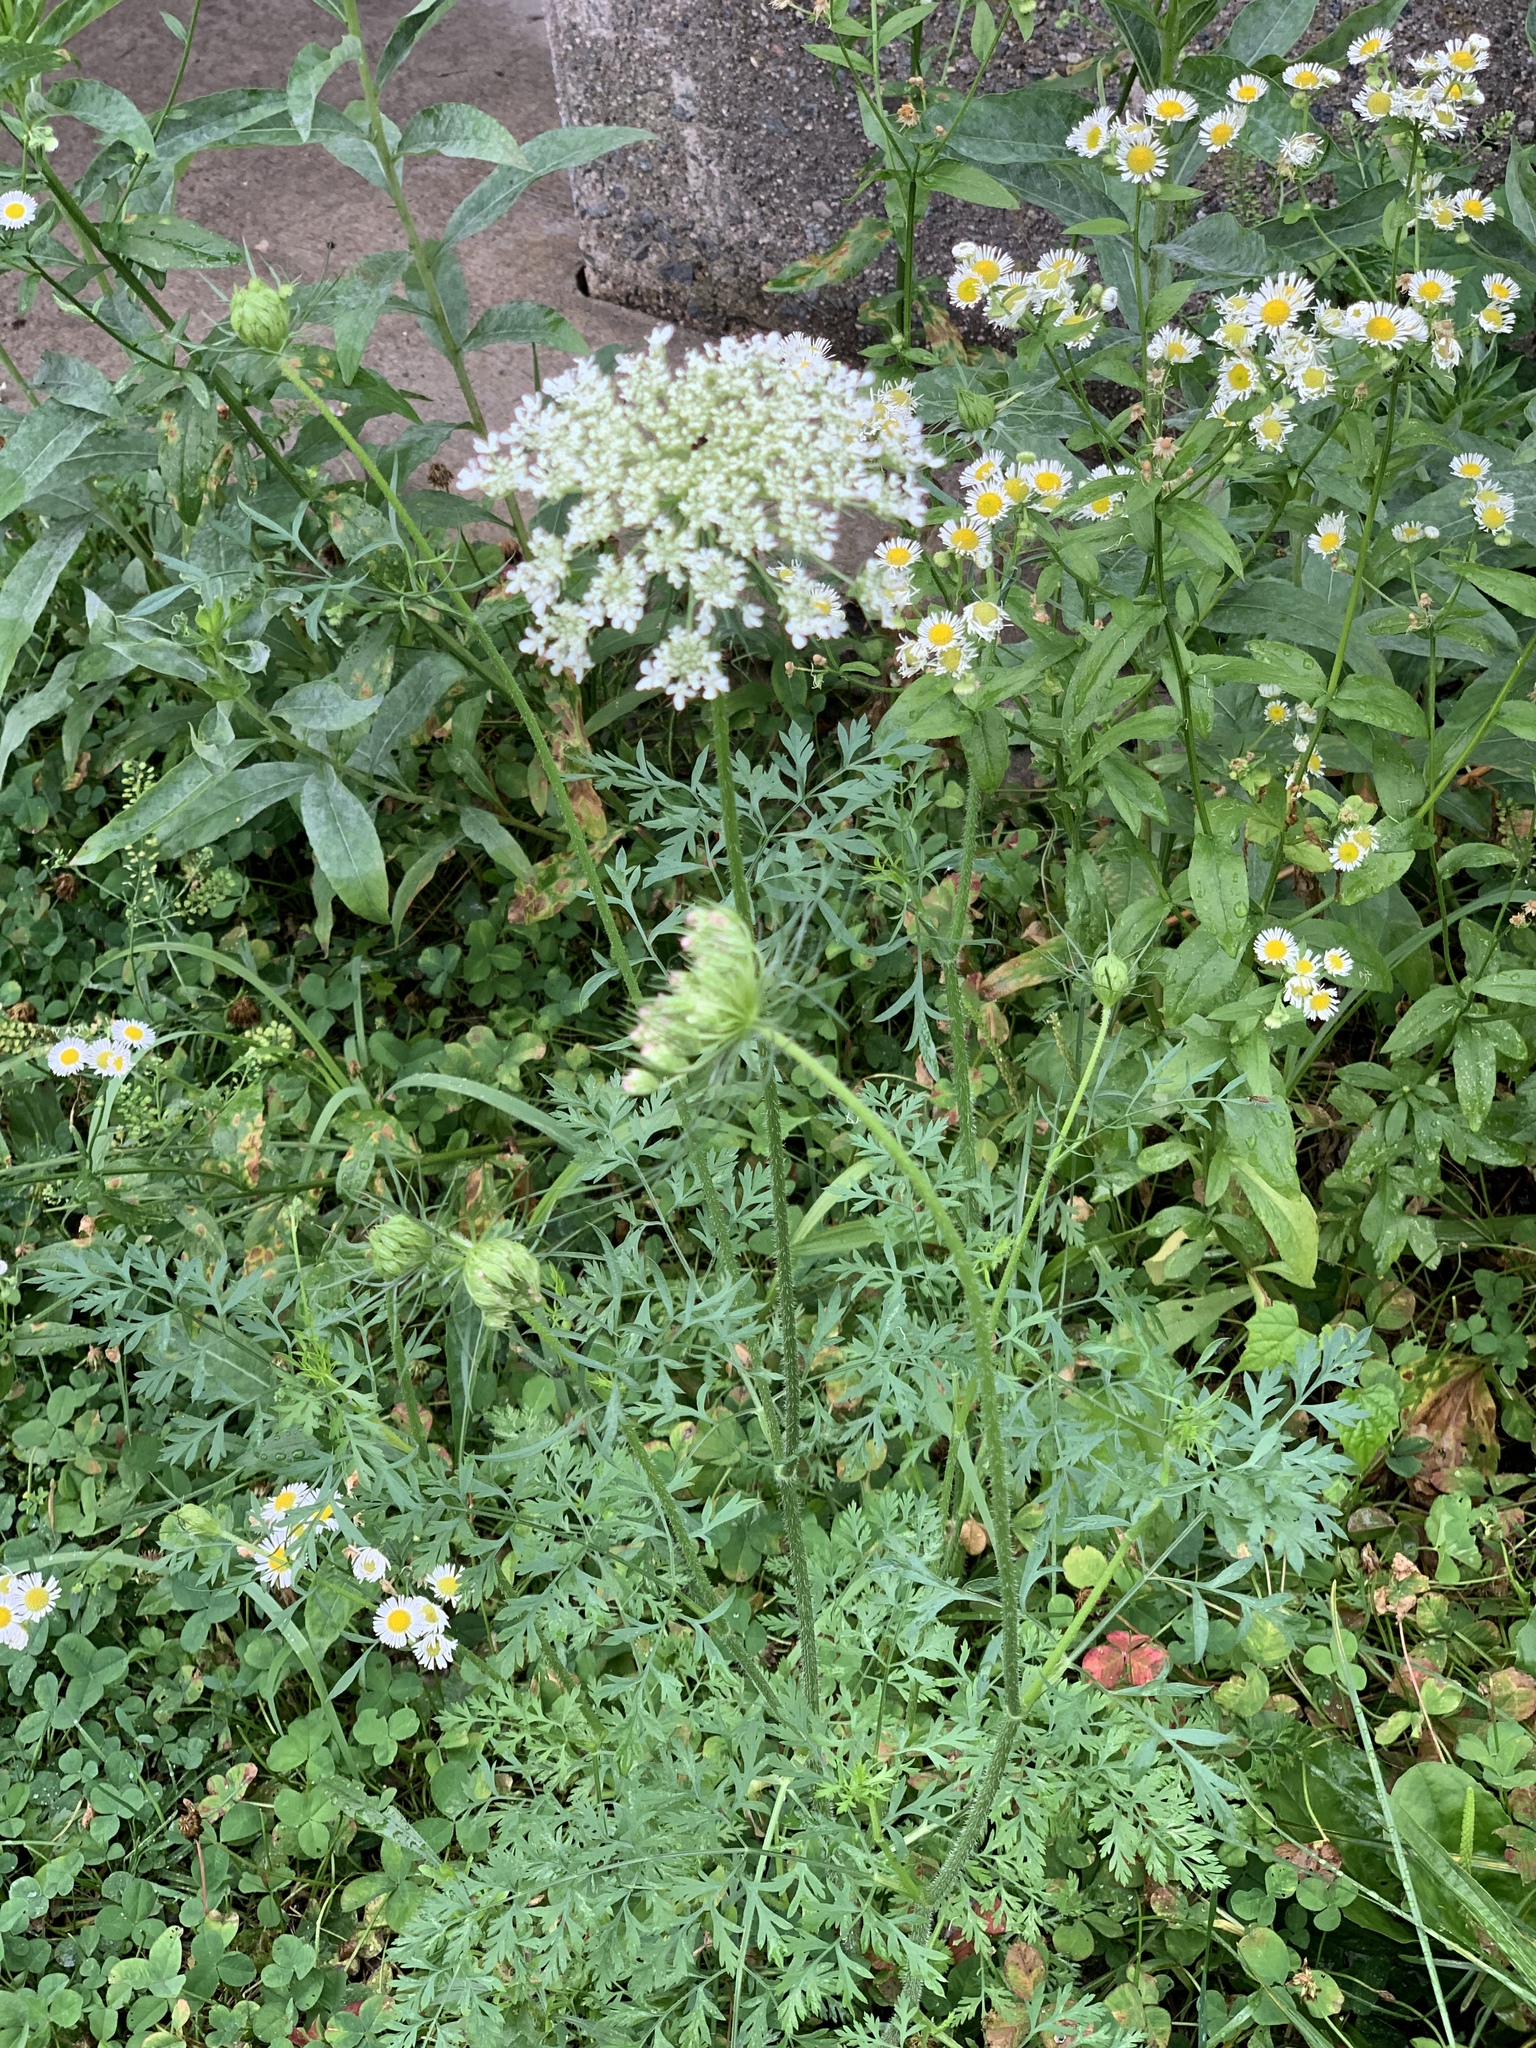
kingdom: Plantae
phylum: Tracheophyta
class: Magnoliopsida
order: Apiales
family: Apiaceae
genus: Daucus
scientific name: Daucus carota
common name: Wild carrot
